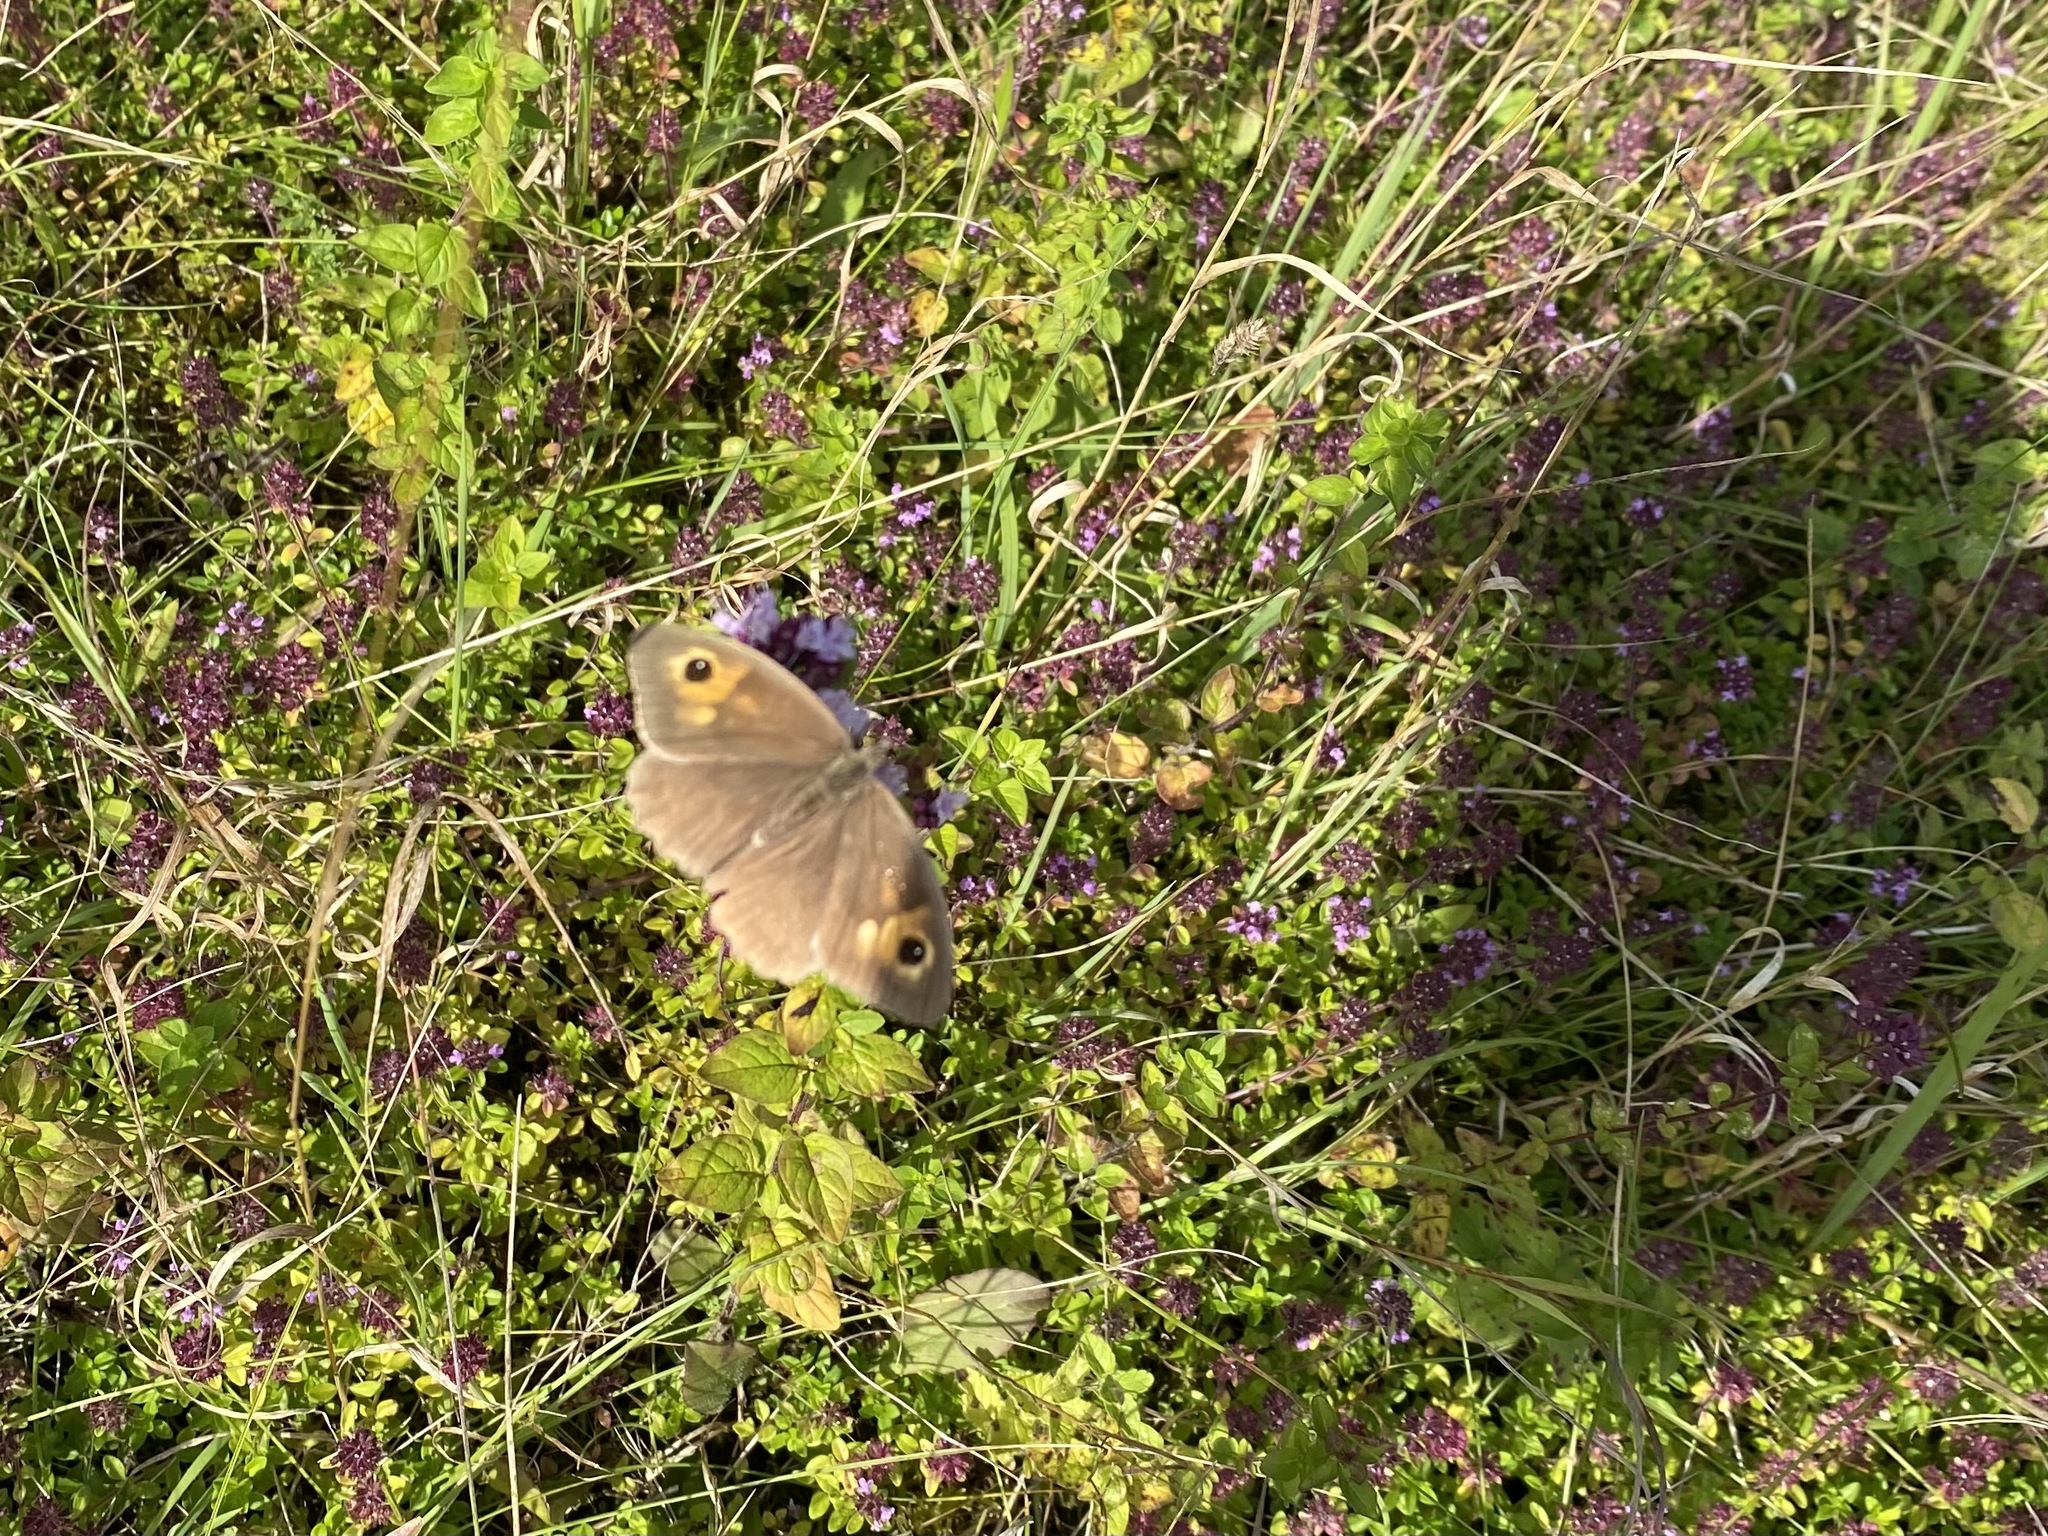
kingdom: Animalia
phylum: Arthropoda
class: Insecta
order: Lepidoptera
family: Nymphalidae
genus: Maniola
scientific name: Maniola jurtina
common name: Meadow brown
